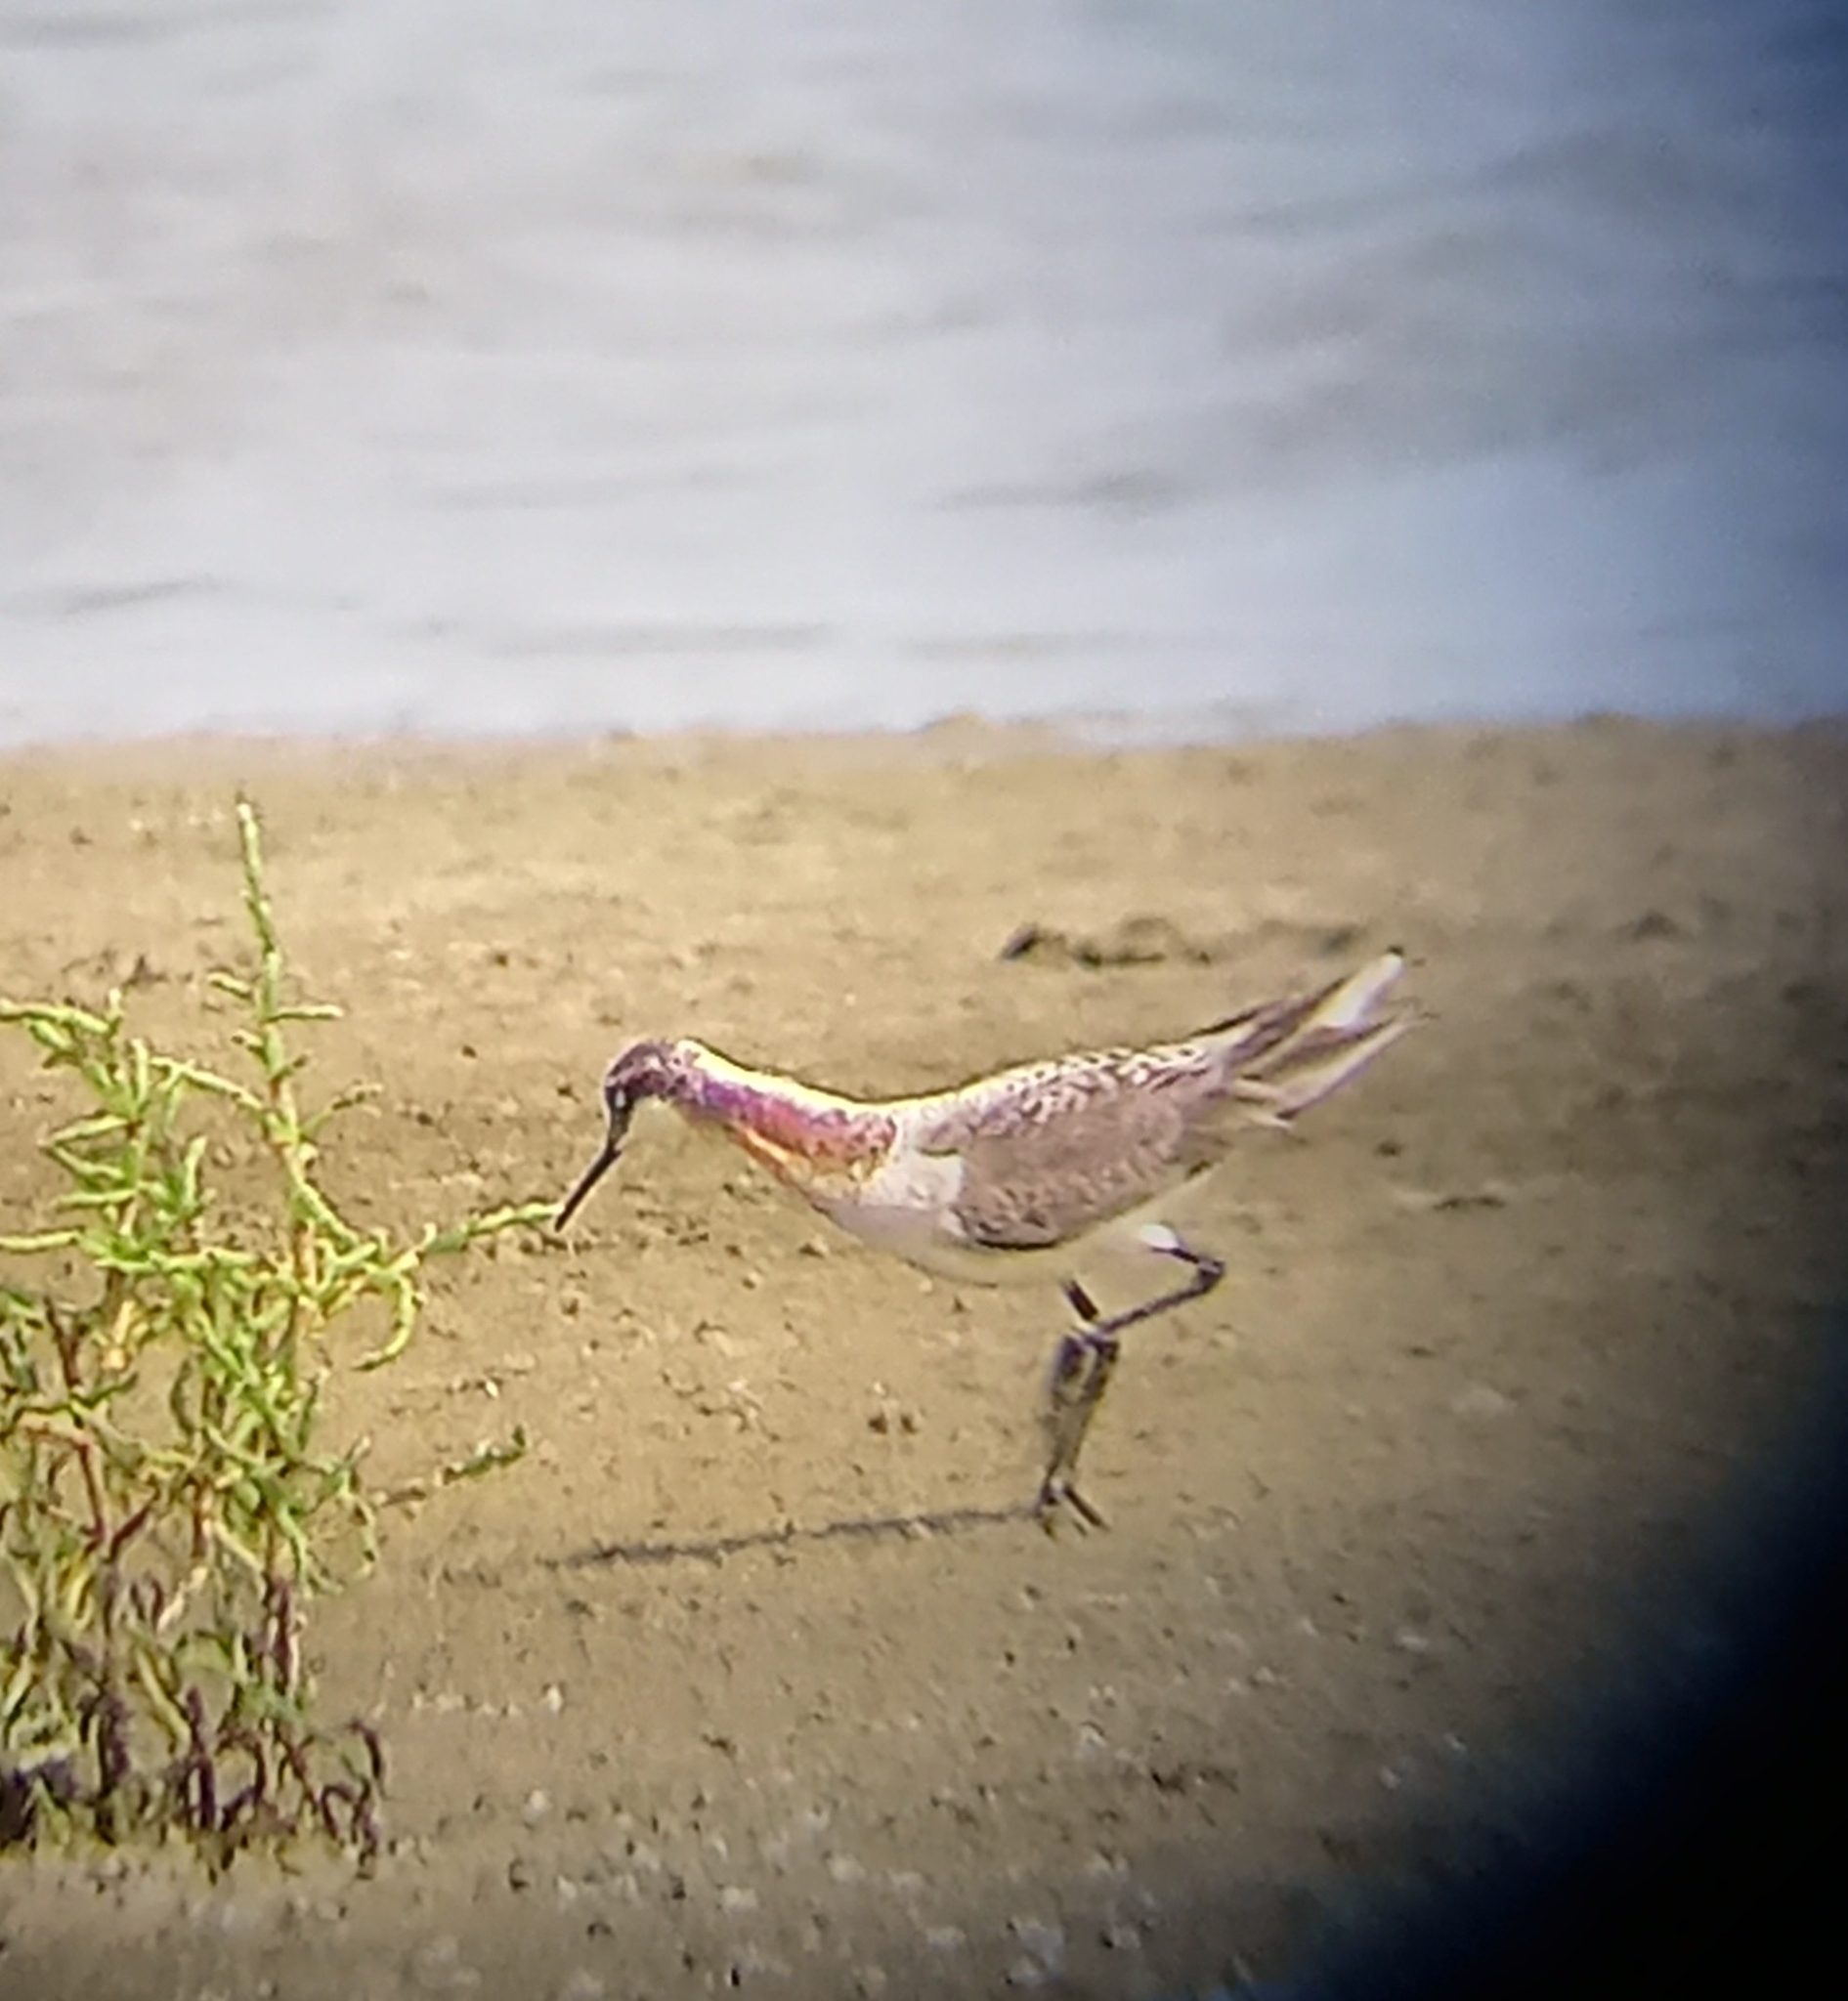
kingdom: Animalia
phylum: Chordata
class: Aves
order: Charadriiformes
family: Scolopacidae
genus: Phalaropus
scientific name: Phalaropus tricolor
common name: Wilson's phalarope
